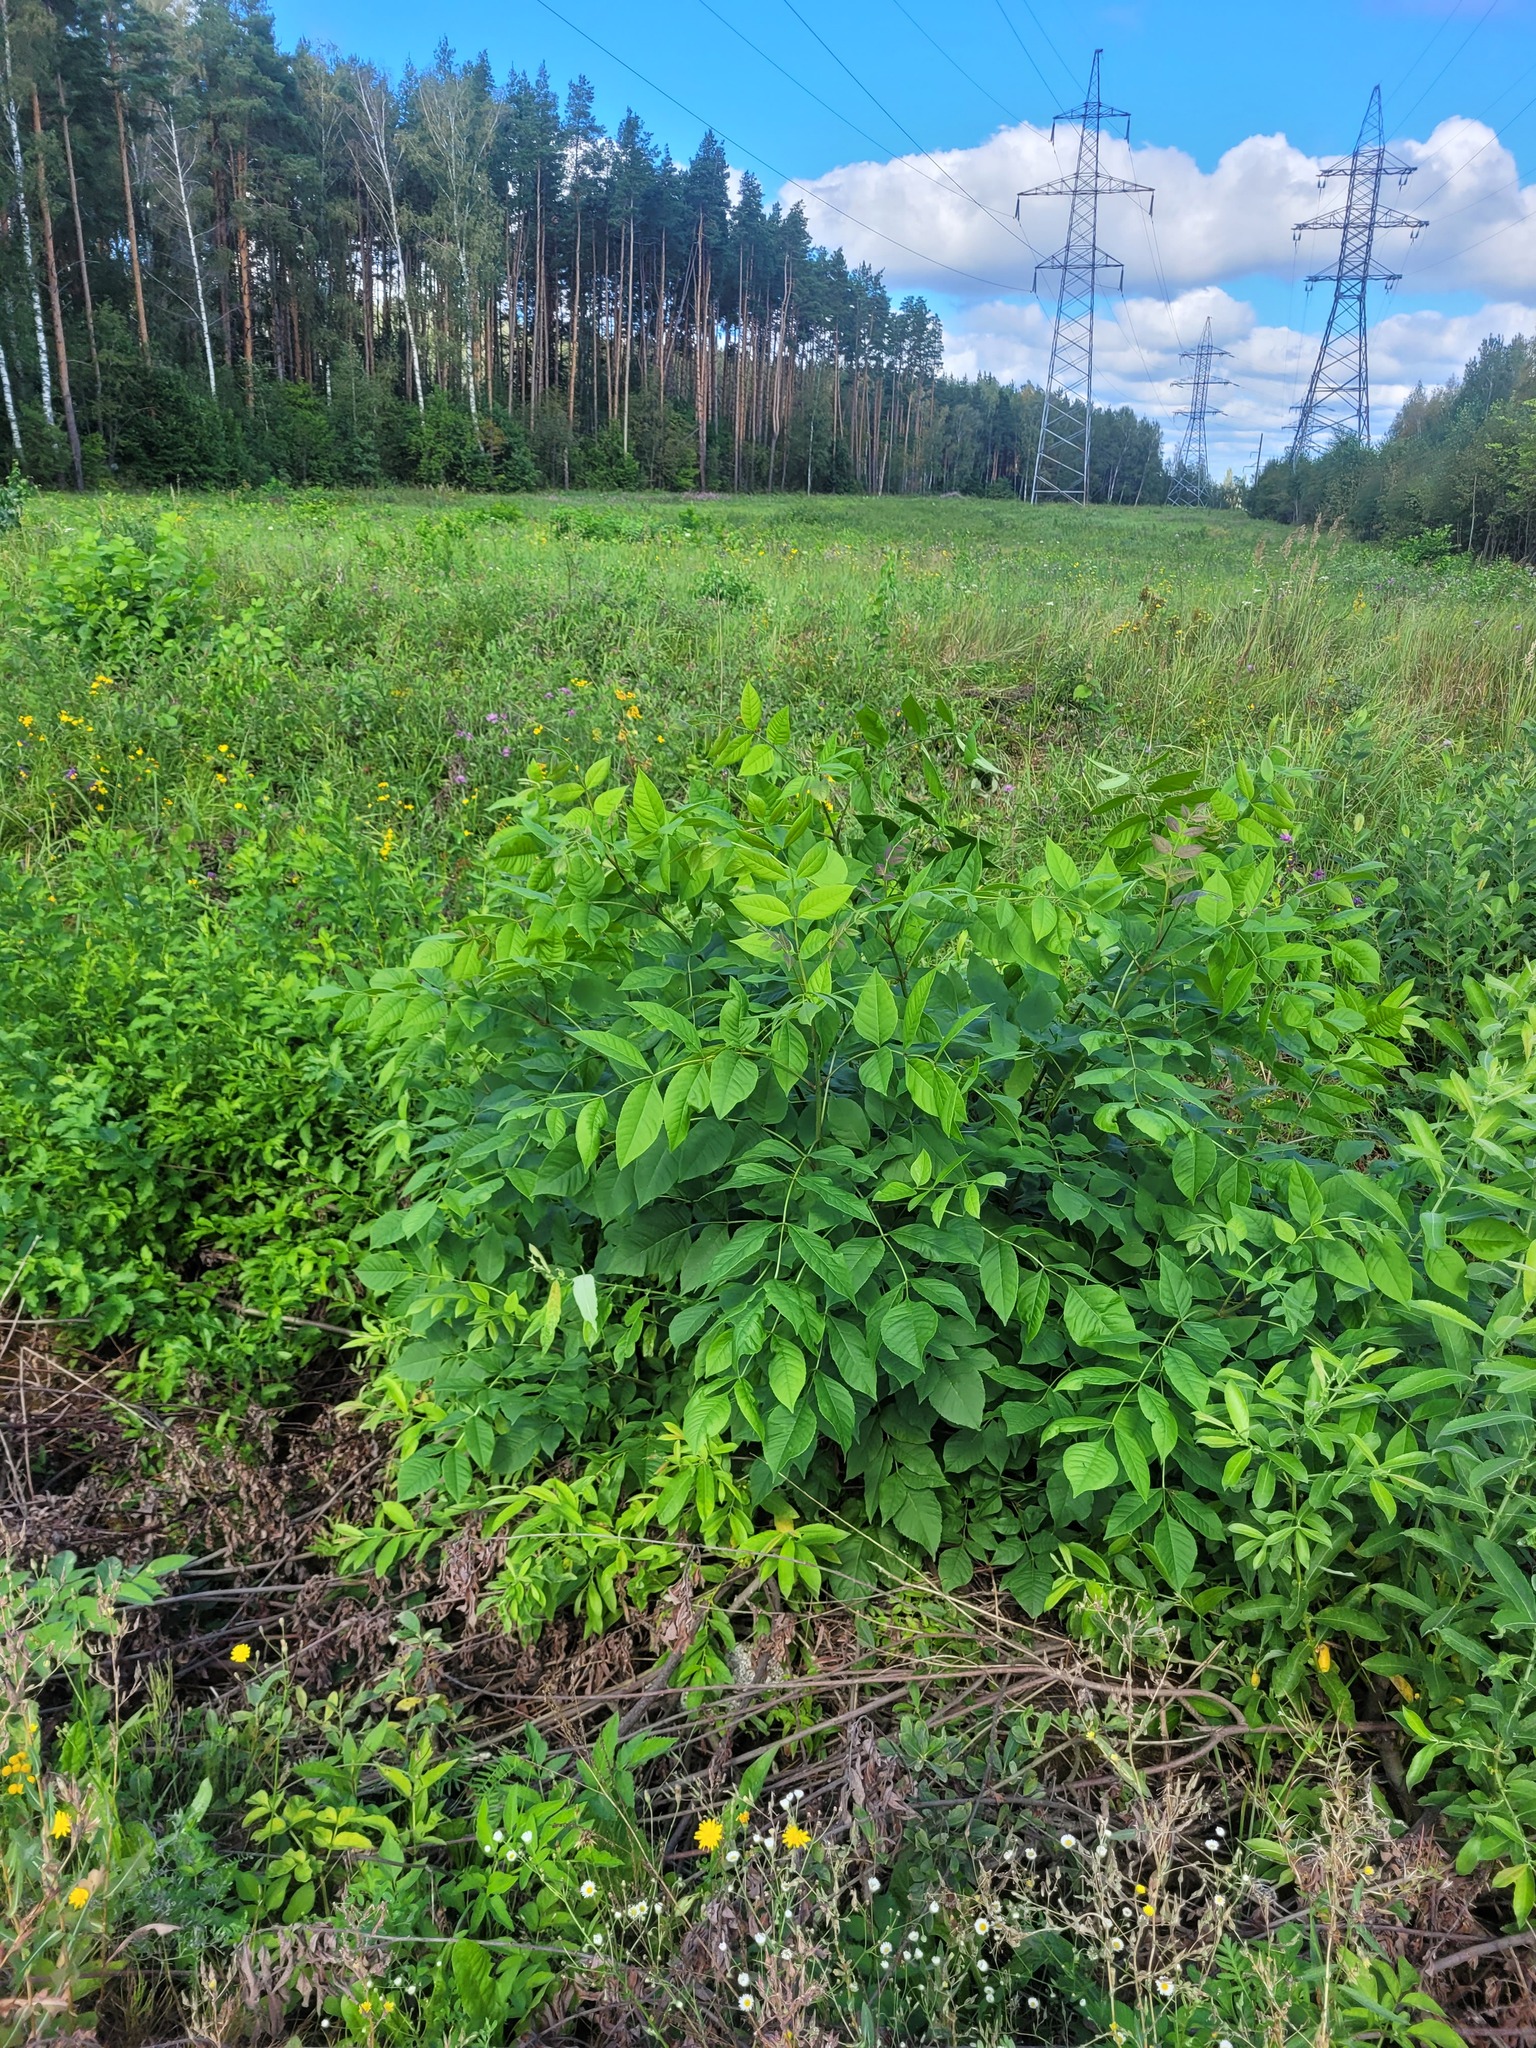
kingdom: Plantae
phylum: Tracheophyta
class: Magnoliopsida
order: Lamiales
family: Oleaceae
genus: Fraxinus
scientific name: Fraxinus pennsylvanica
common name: Green ash
